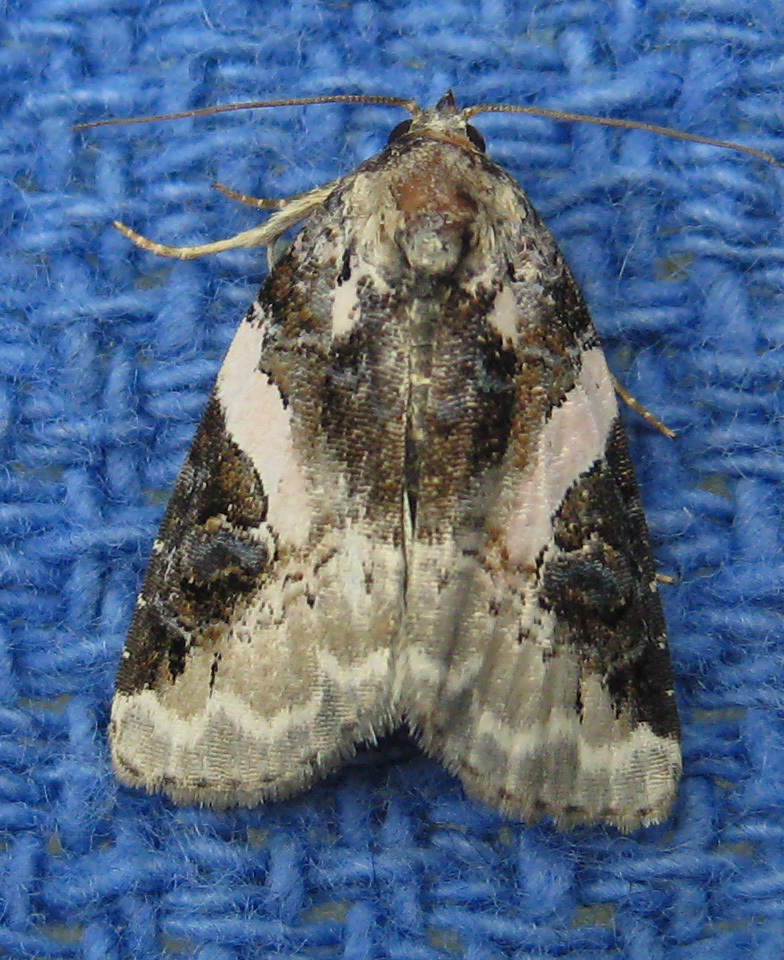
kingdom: Animalia
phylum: Arthropoda
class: Insecta
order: Lepidoptera
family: Noctuidae
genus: Pseudeustrotia
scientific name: Pseudeustrotia carneola
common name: Pink-barred lithacodia moth
